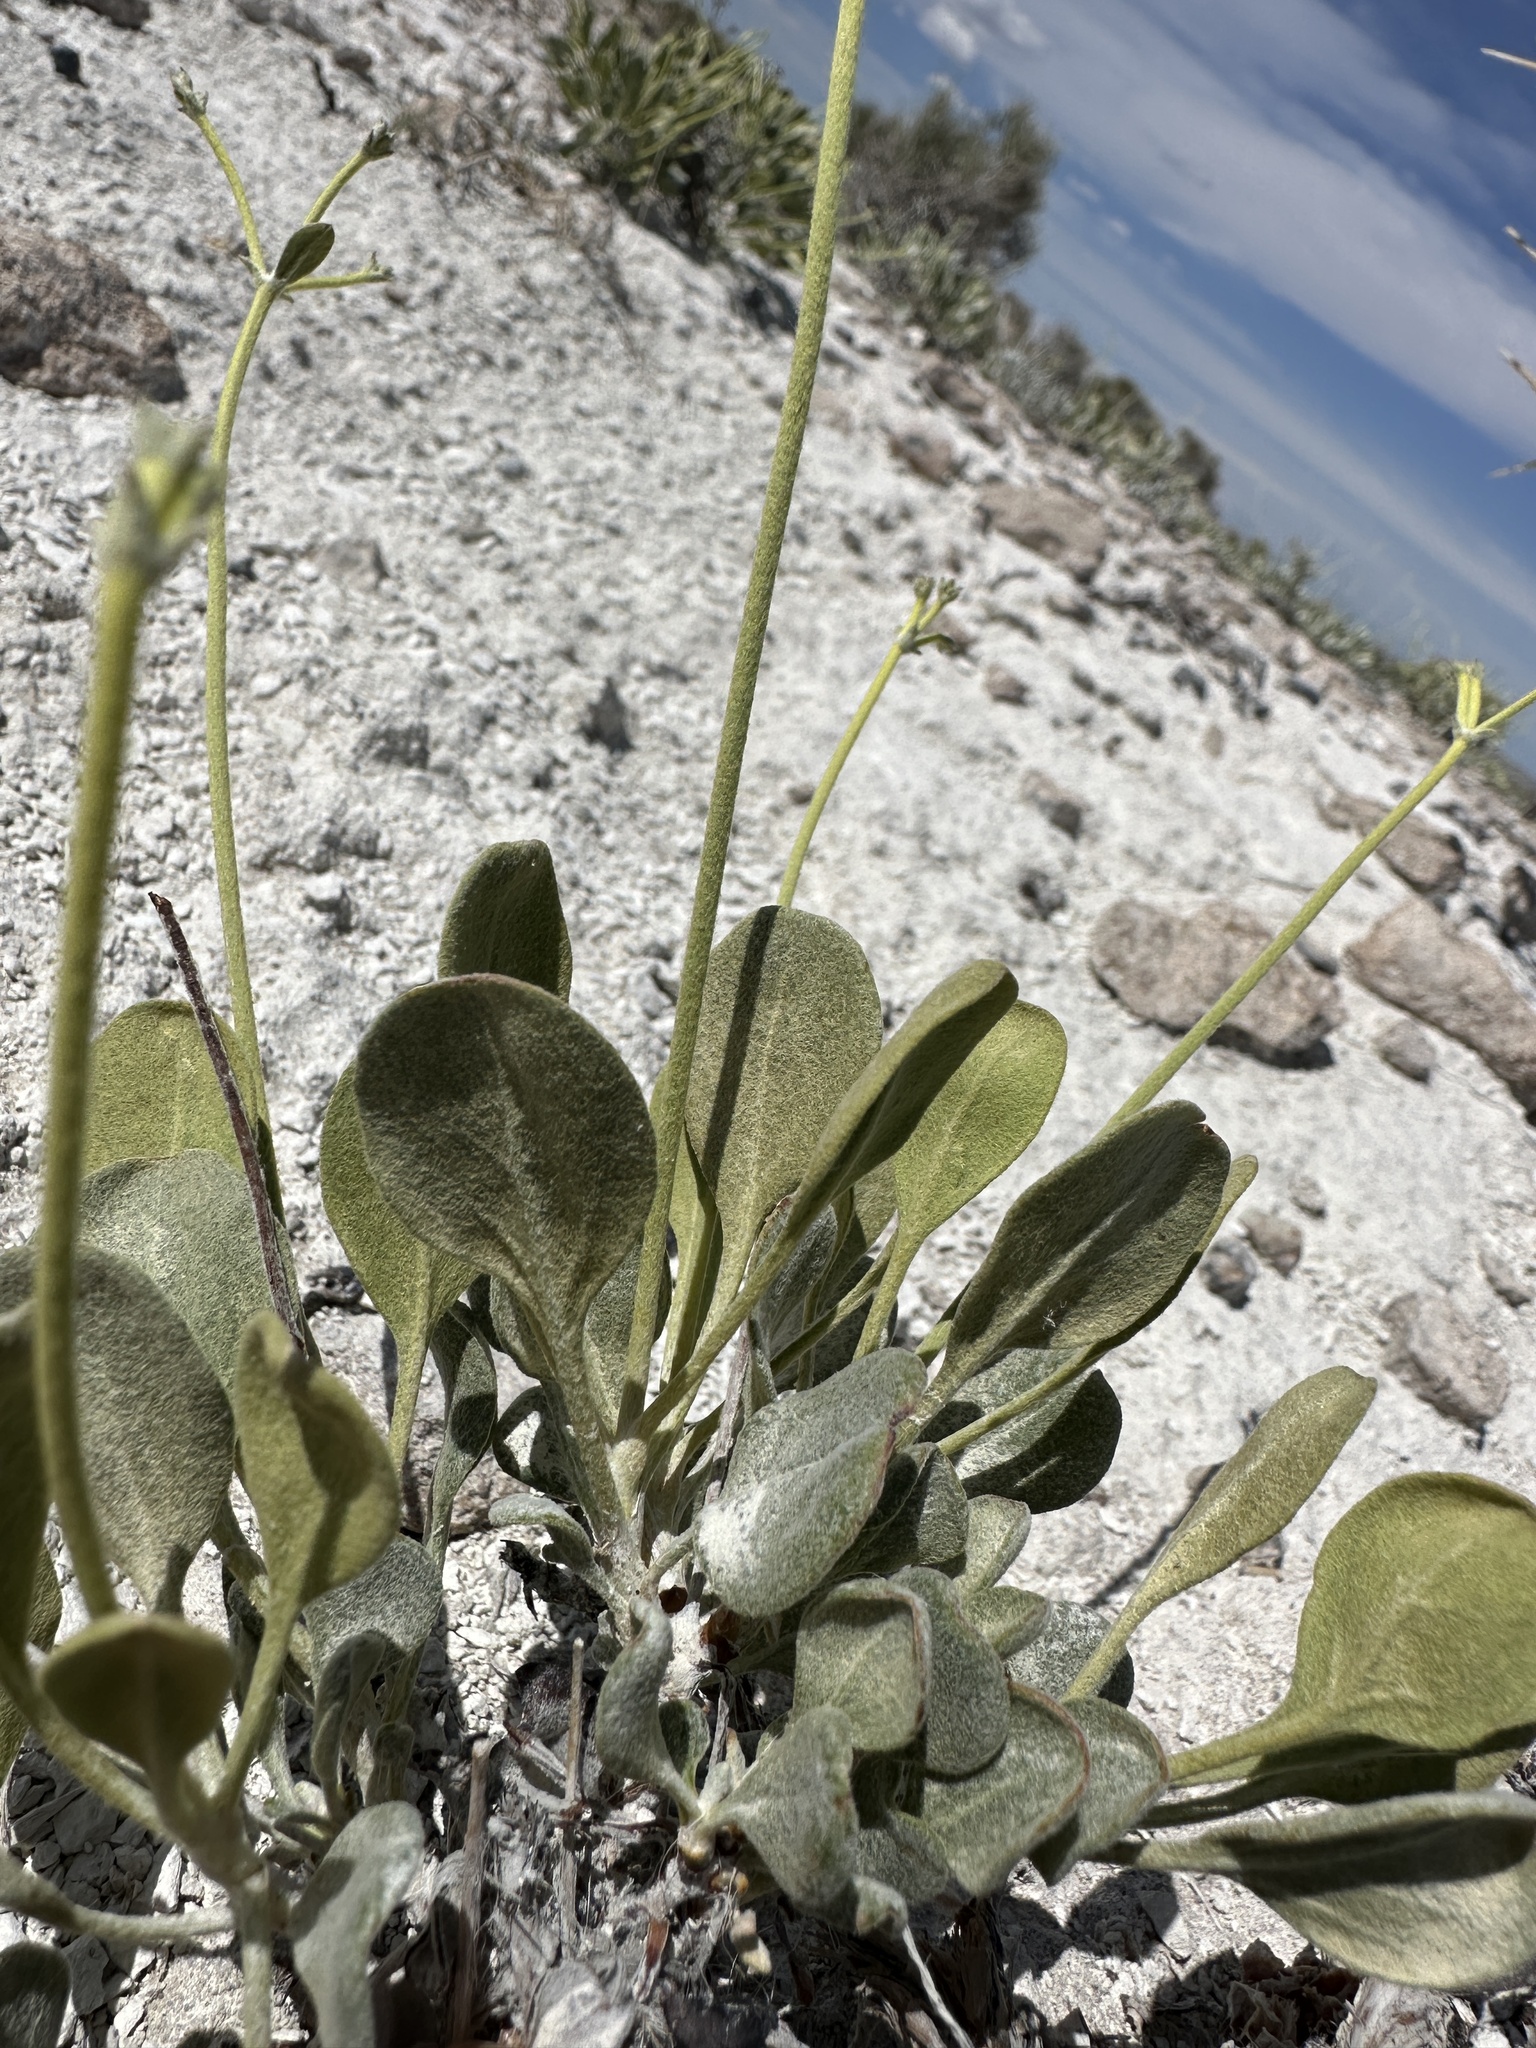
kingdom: Plantae
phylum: Tracheophyta
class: Magnoliopsida
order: Caryophyllales
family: Polygonaceae
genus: Eriogonum
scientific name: Eriogonum natum
